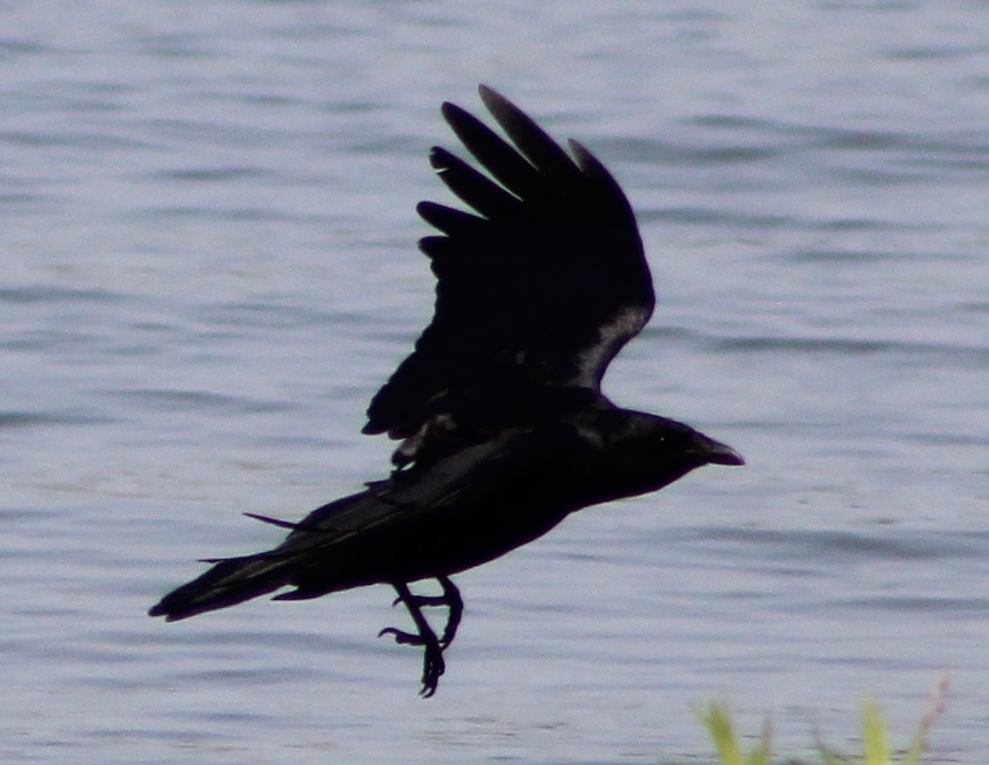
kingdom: Animalia
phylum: Chordata
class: Aves
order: Passeriformes
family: Corvidae
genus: Corvus
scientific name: Corvus ossifragus
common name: Fish crow
